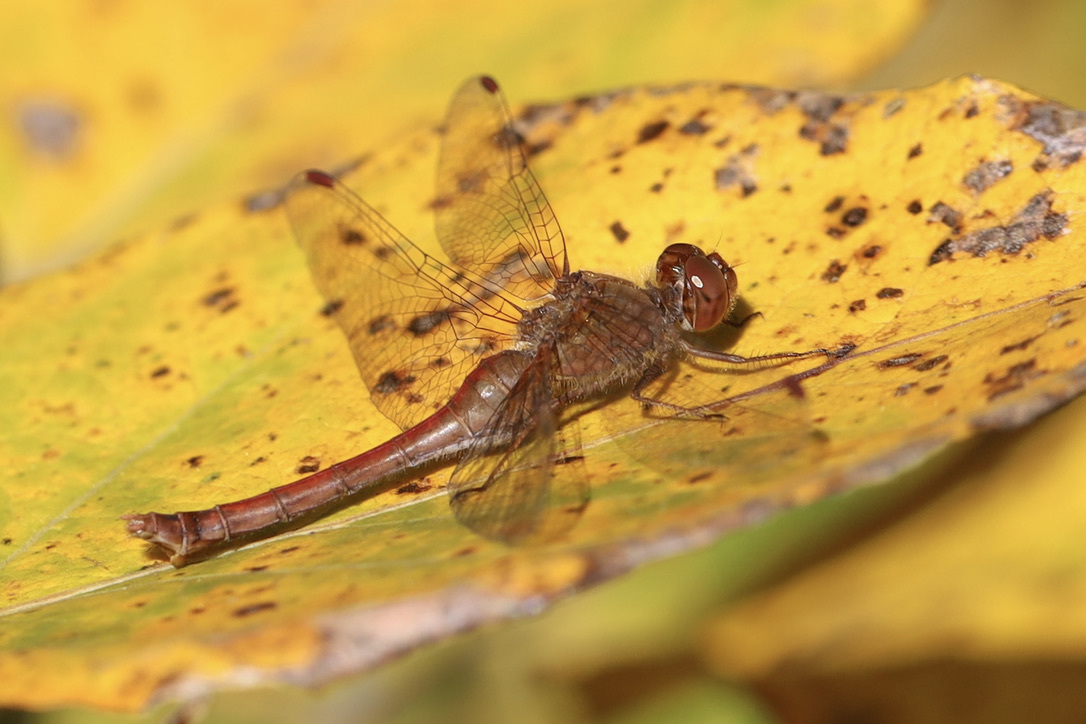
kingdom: Animalia
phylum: Arthropoda
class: Insecta
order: Odonata
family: Libellulidae
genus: Sympetrum
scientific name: Sympetrum vicinum
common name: Autumn meadowhawk
